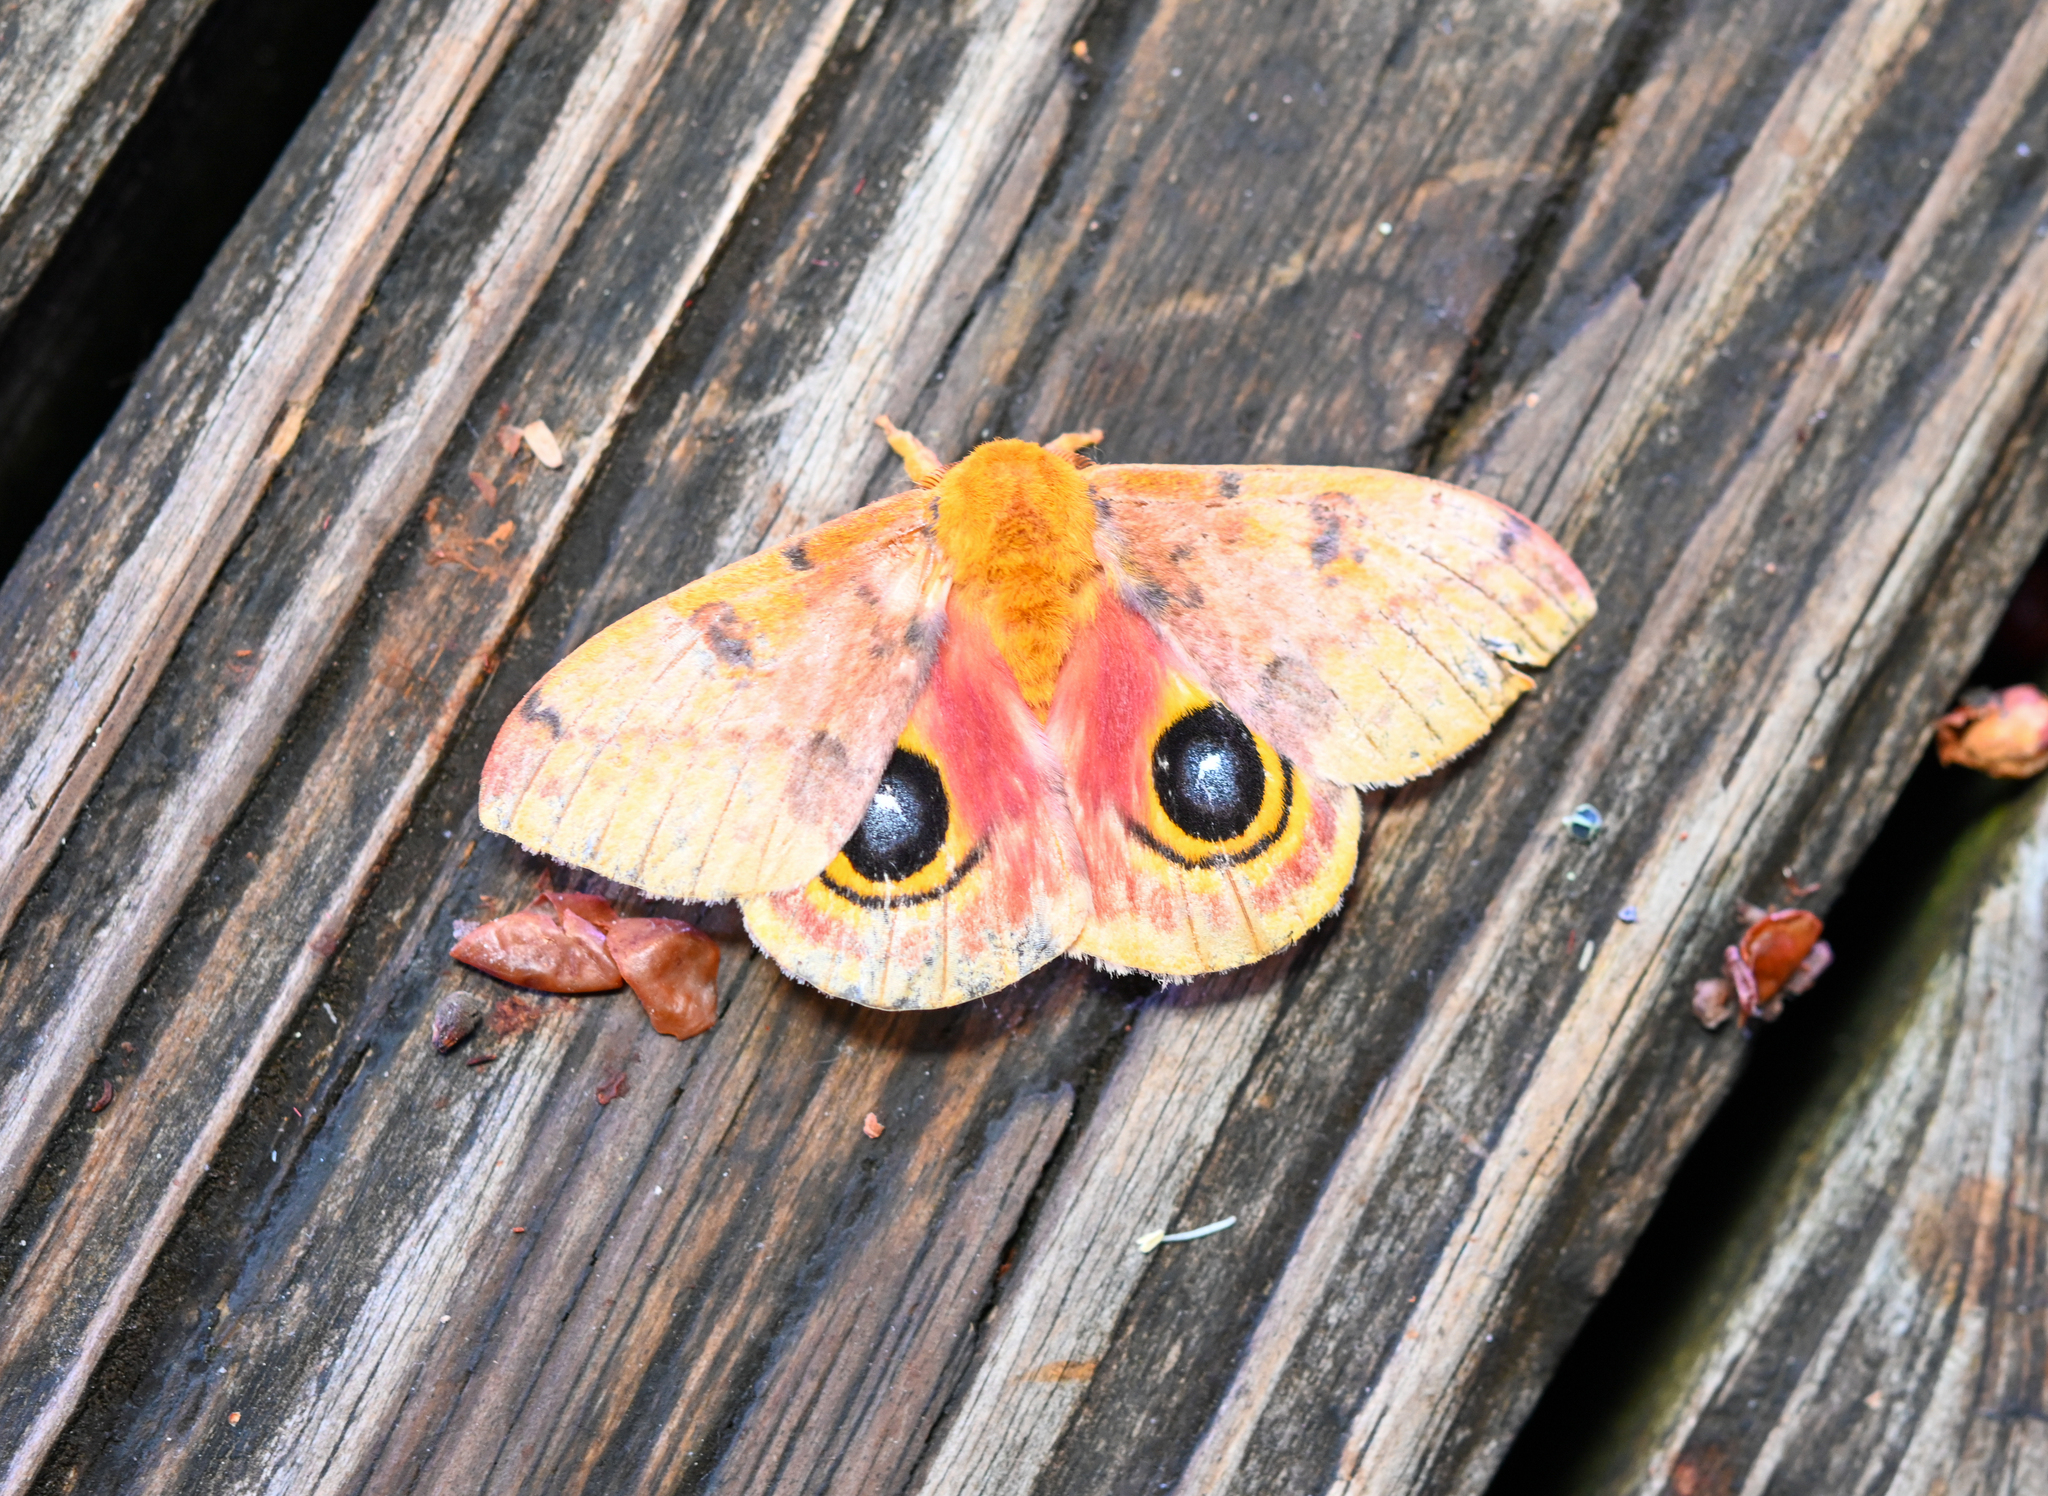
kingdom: Animalia
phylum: Arthropoda
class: Insecta
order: Lepidoptera
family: Saturniidae
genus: Automeris
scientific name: Automeris io
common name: Io moth
